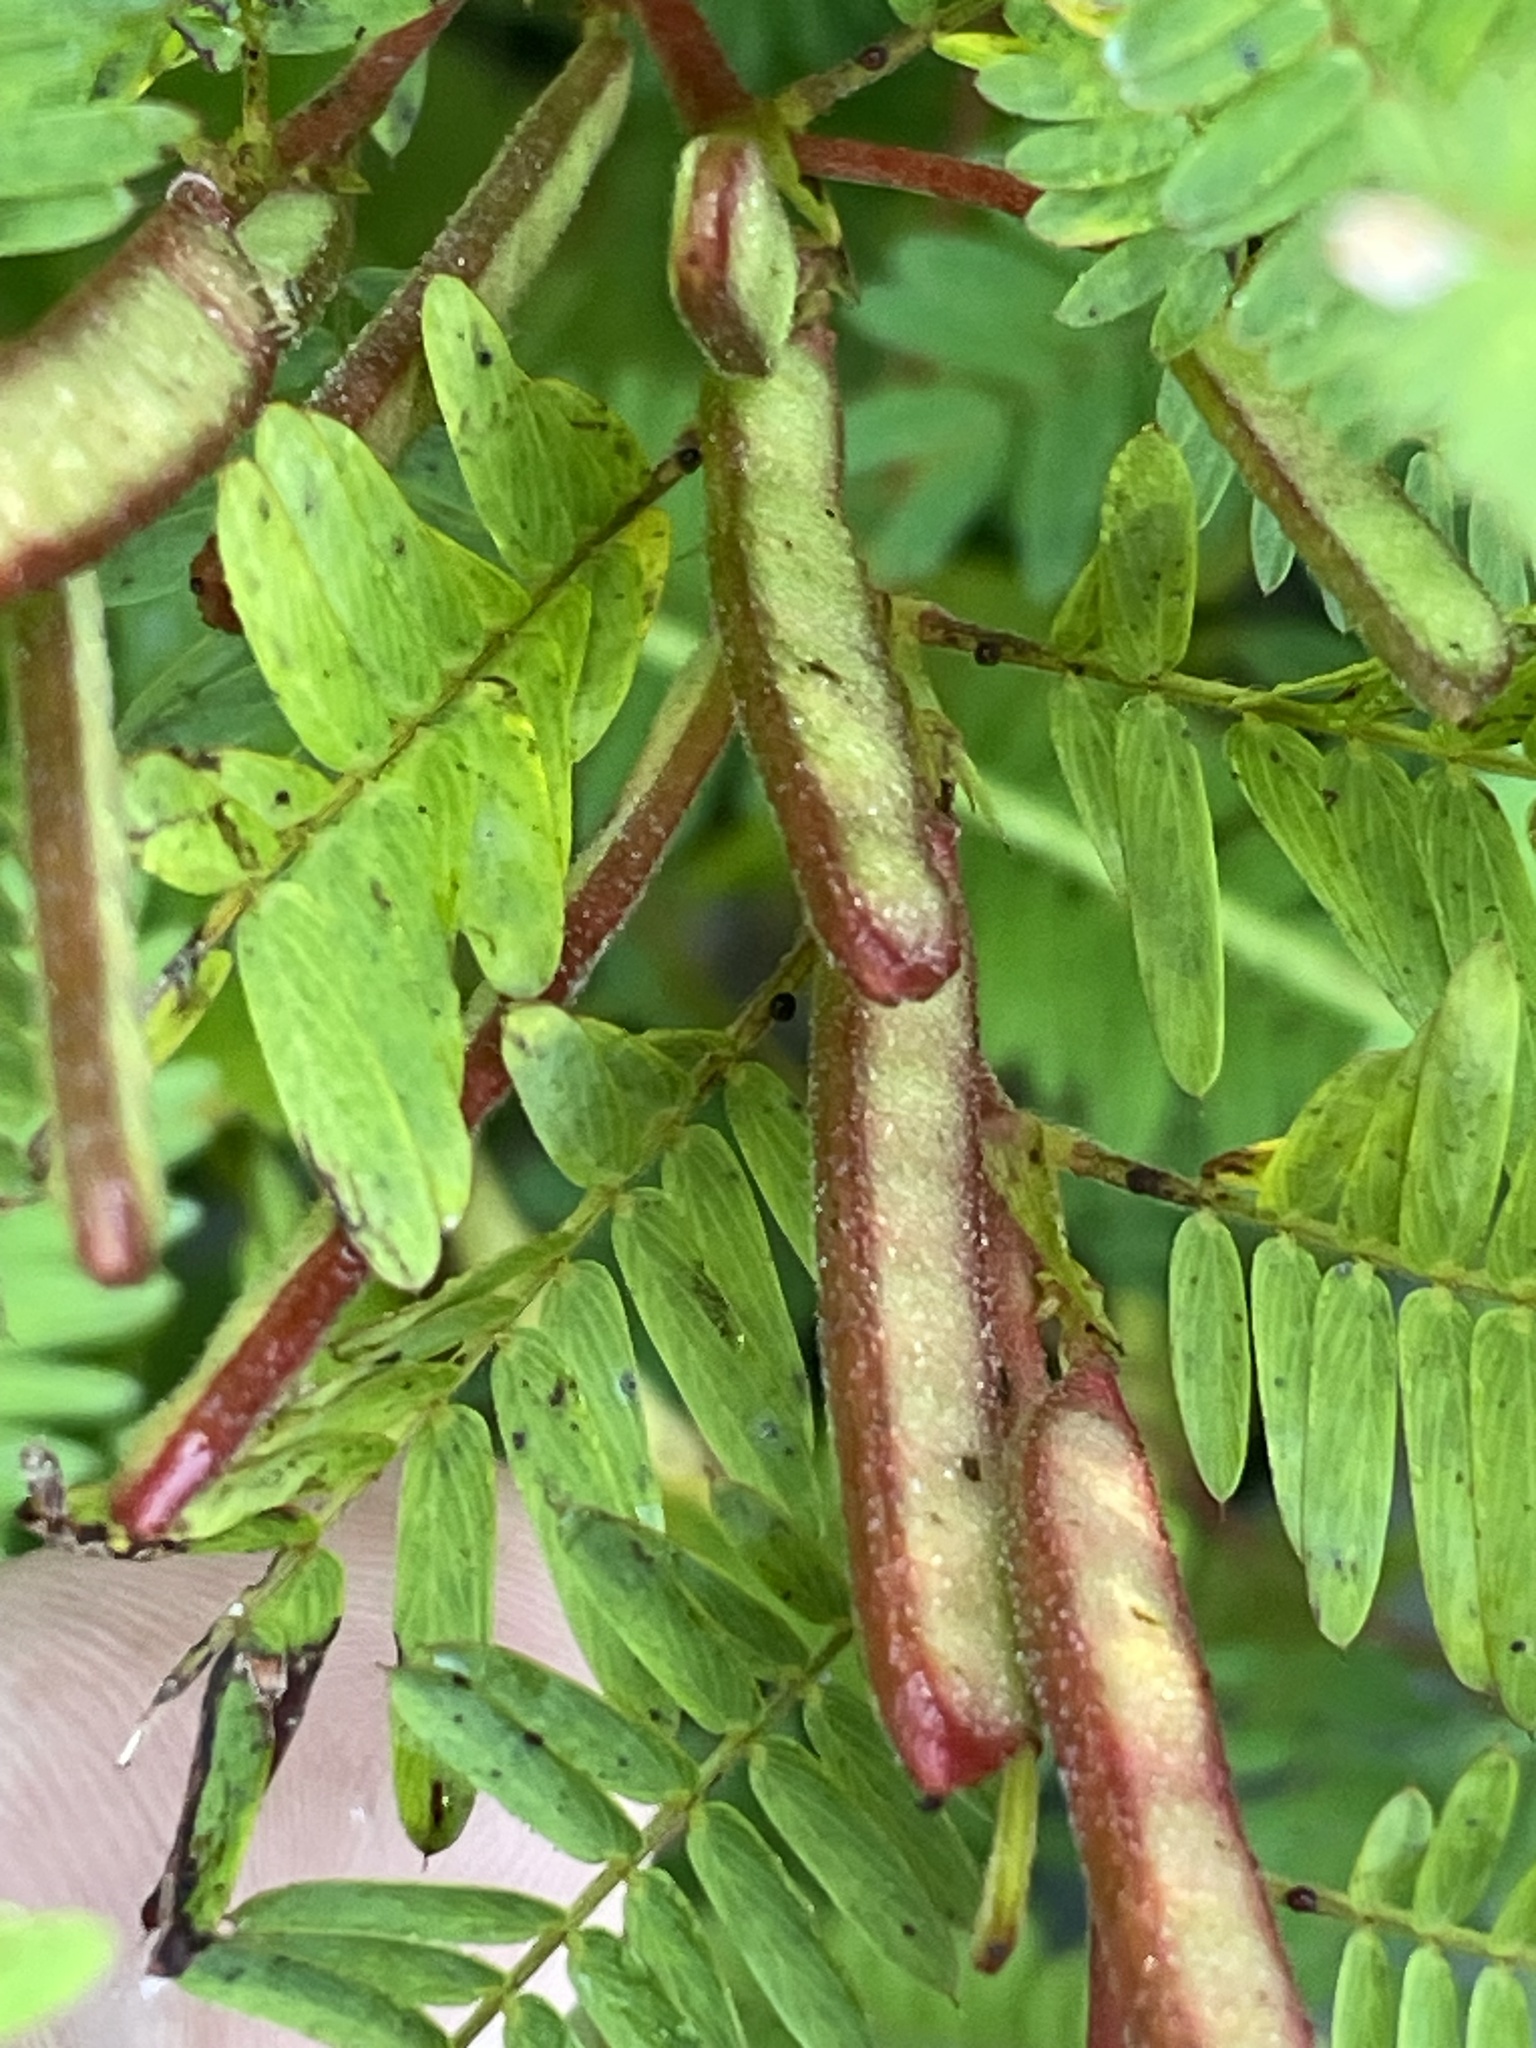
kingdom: Plantae
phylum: Tracheophyta
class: Magnoliopsida
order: Fabales
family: Fabaceae
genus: Chamaecrista
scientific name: Chamaecrista nictitans
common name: Sensitive cassia
